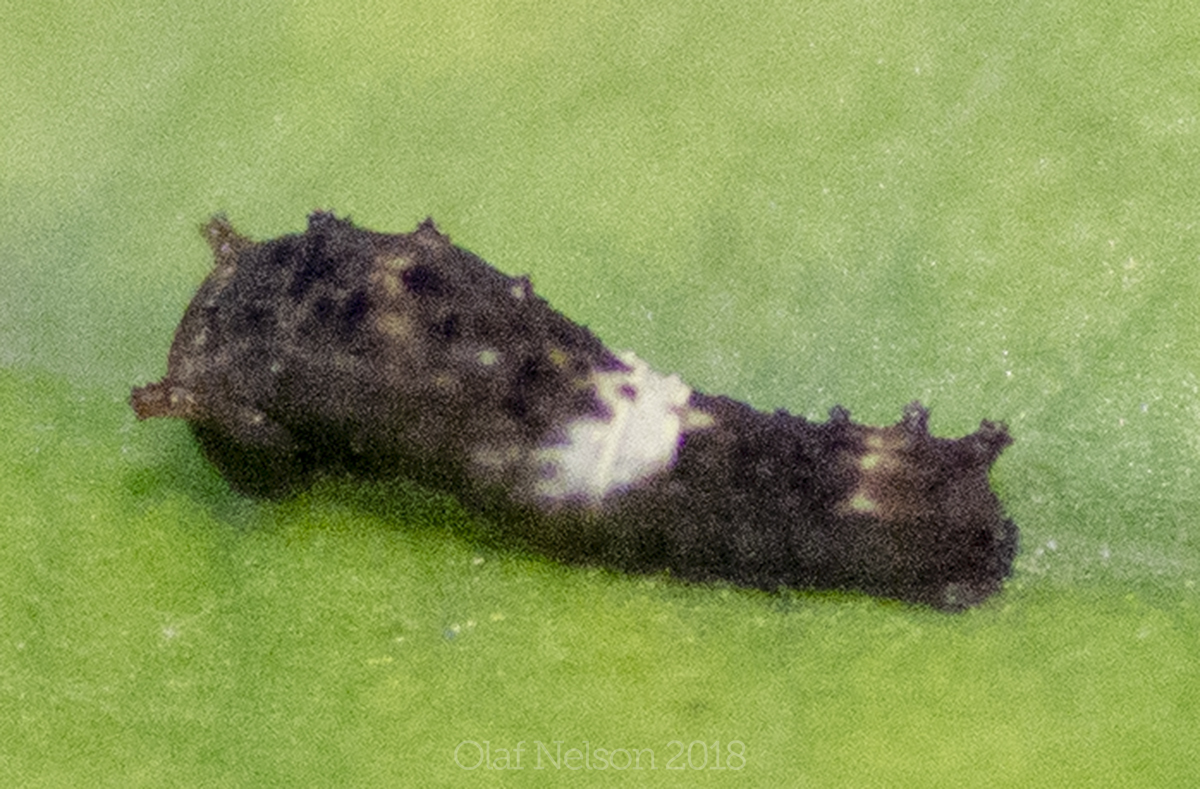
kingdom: Animalia
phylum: Arthropoda
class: Insecta
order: Lepidoptera
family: Papilionidae
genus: Papilio
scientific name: Papilio polyxenes
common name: Black swallowtail
